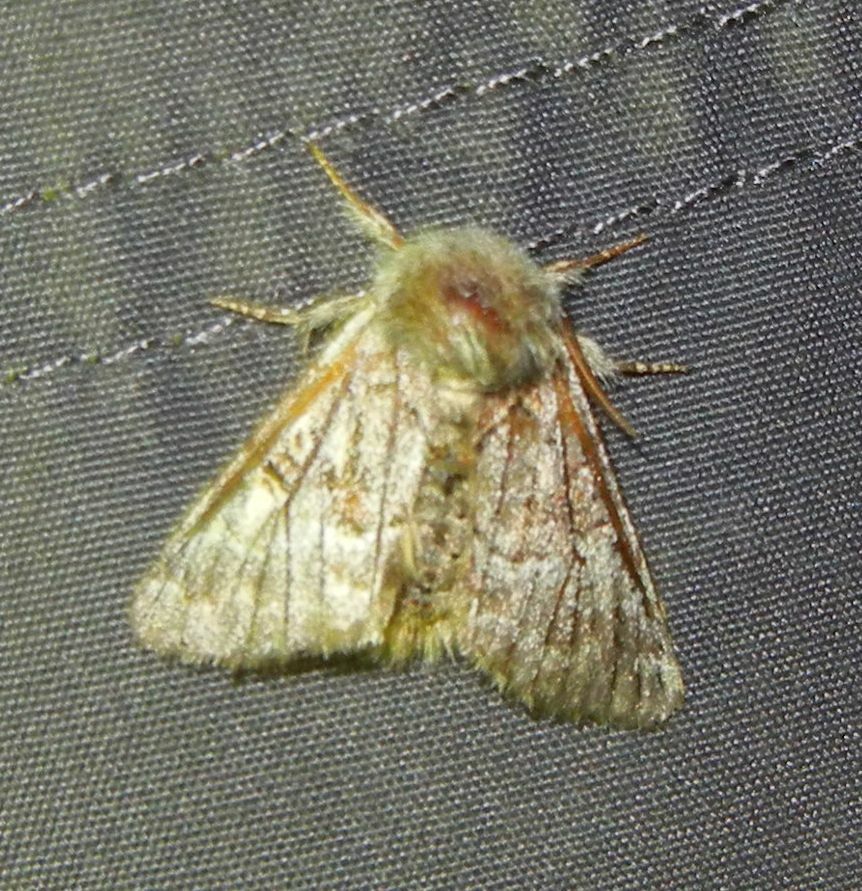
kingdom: Animalia
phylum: Arthropoda
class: Insecta
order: Lepidoptera
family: Noctuidae
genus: Colocasia
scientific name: Colocasia coryli
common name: Nut-tree tussock
